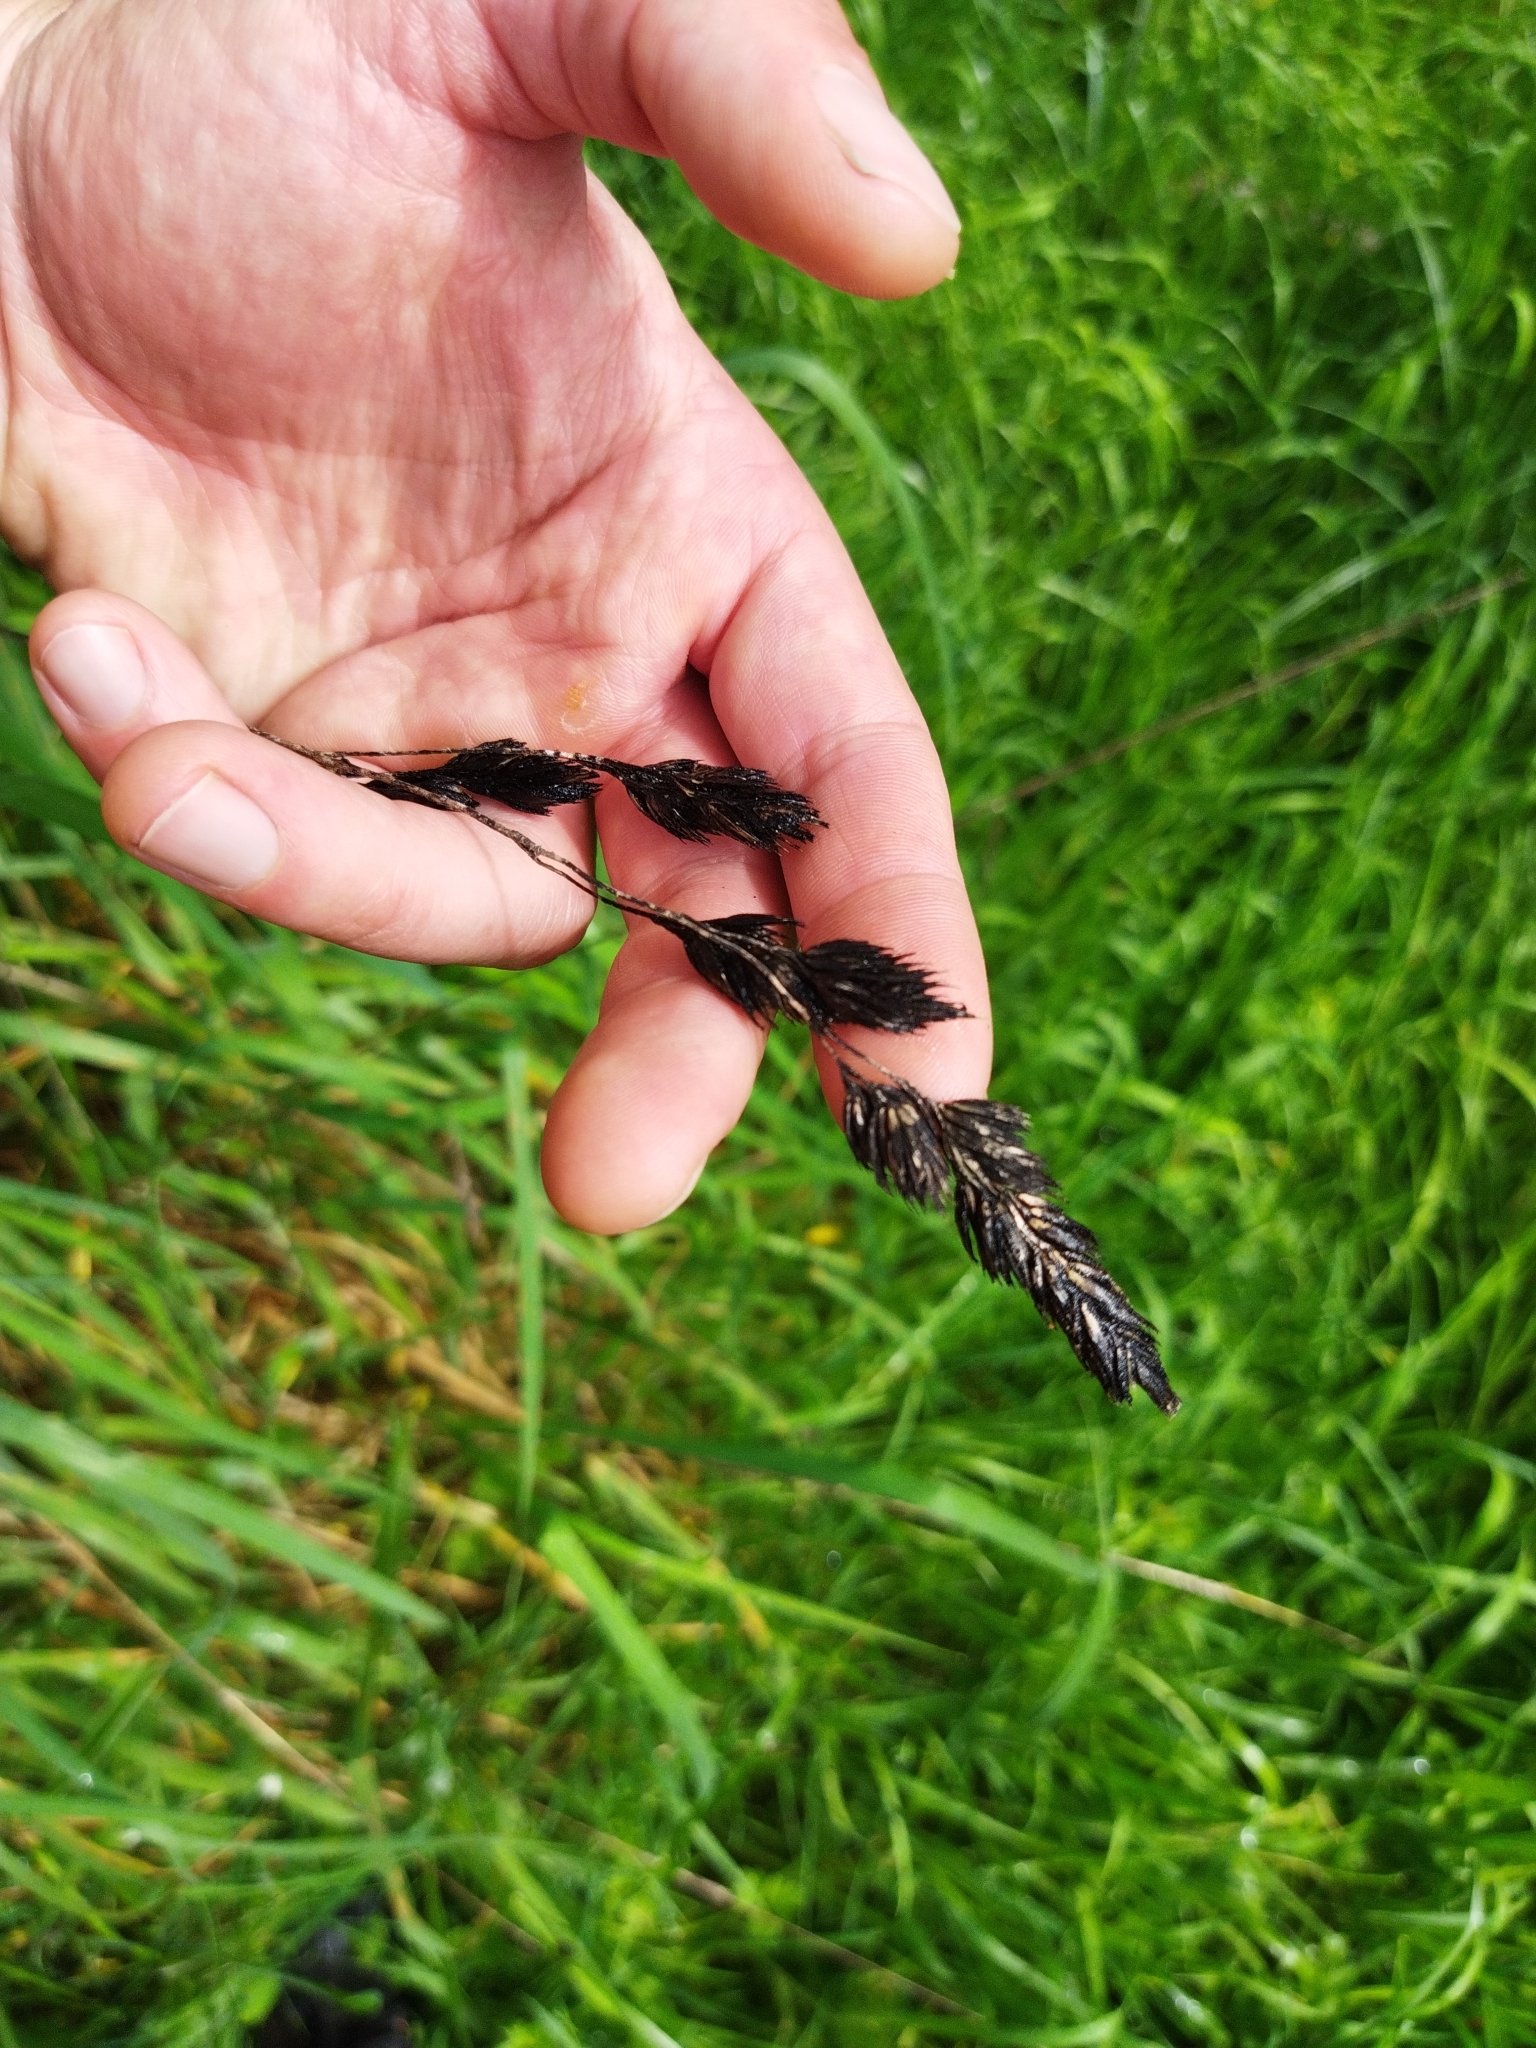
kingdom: Plantae
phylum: Tracheophyta
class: Liliopsida
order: Poales
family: Poaceae
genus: Dactylis
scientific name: Dactylis glomerata
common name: Orchardgrass
